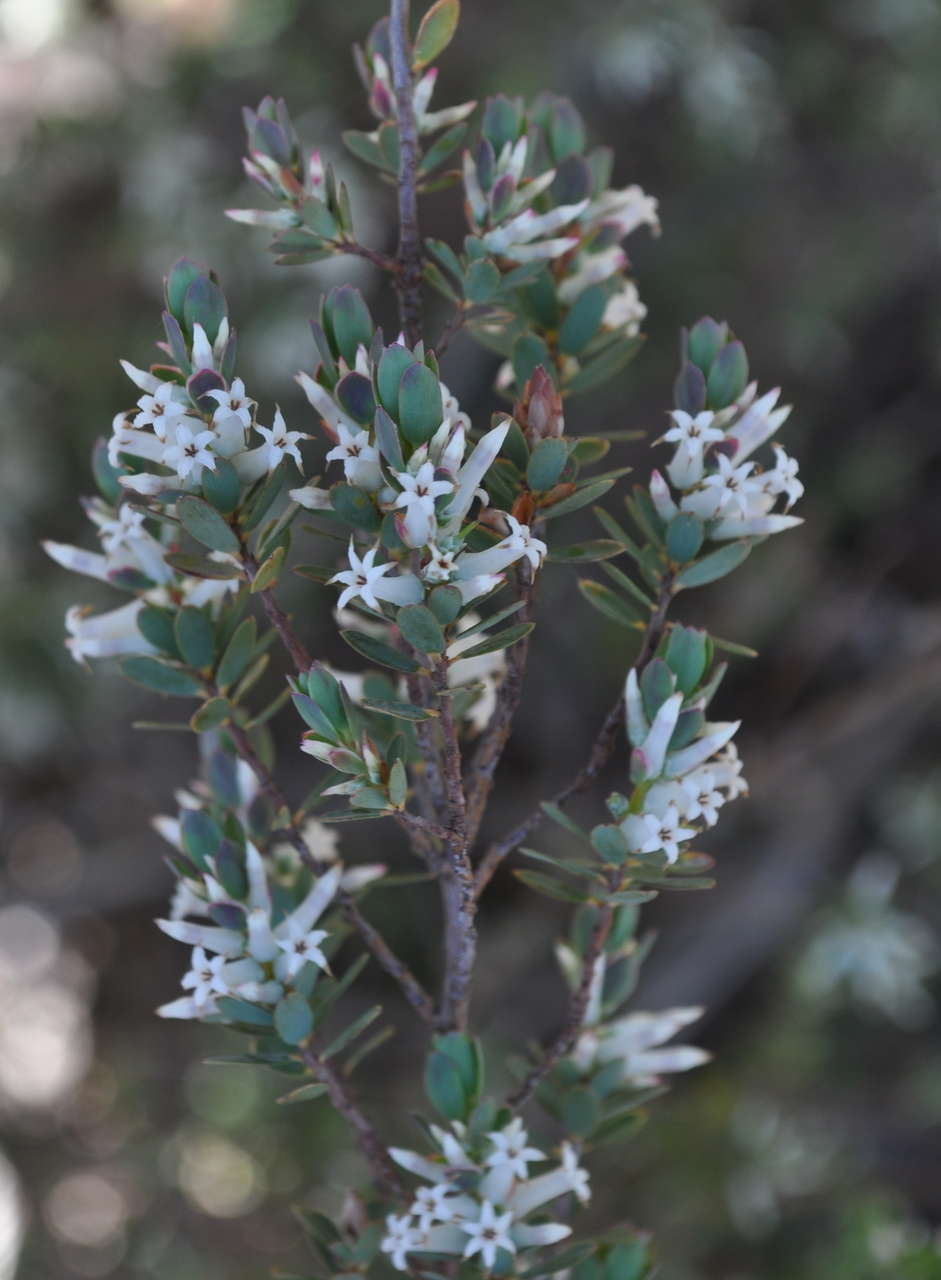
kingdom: Plantae
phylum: Tracheophyta
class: Magnoliopsida
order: Ericales
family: Ericaceae
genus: Brachyloma
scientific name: Brachyloma daphnoides
